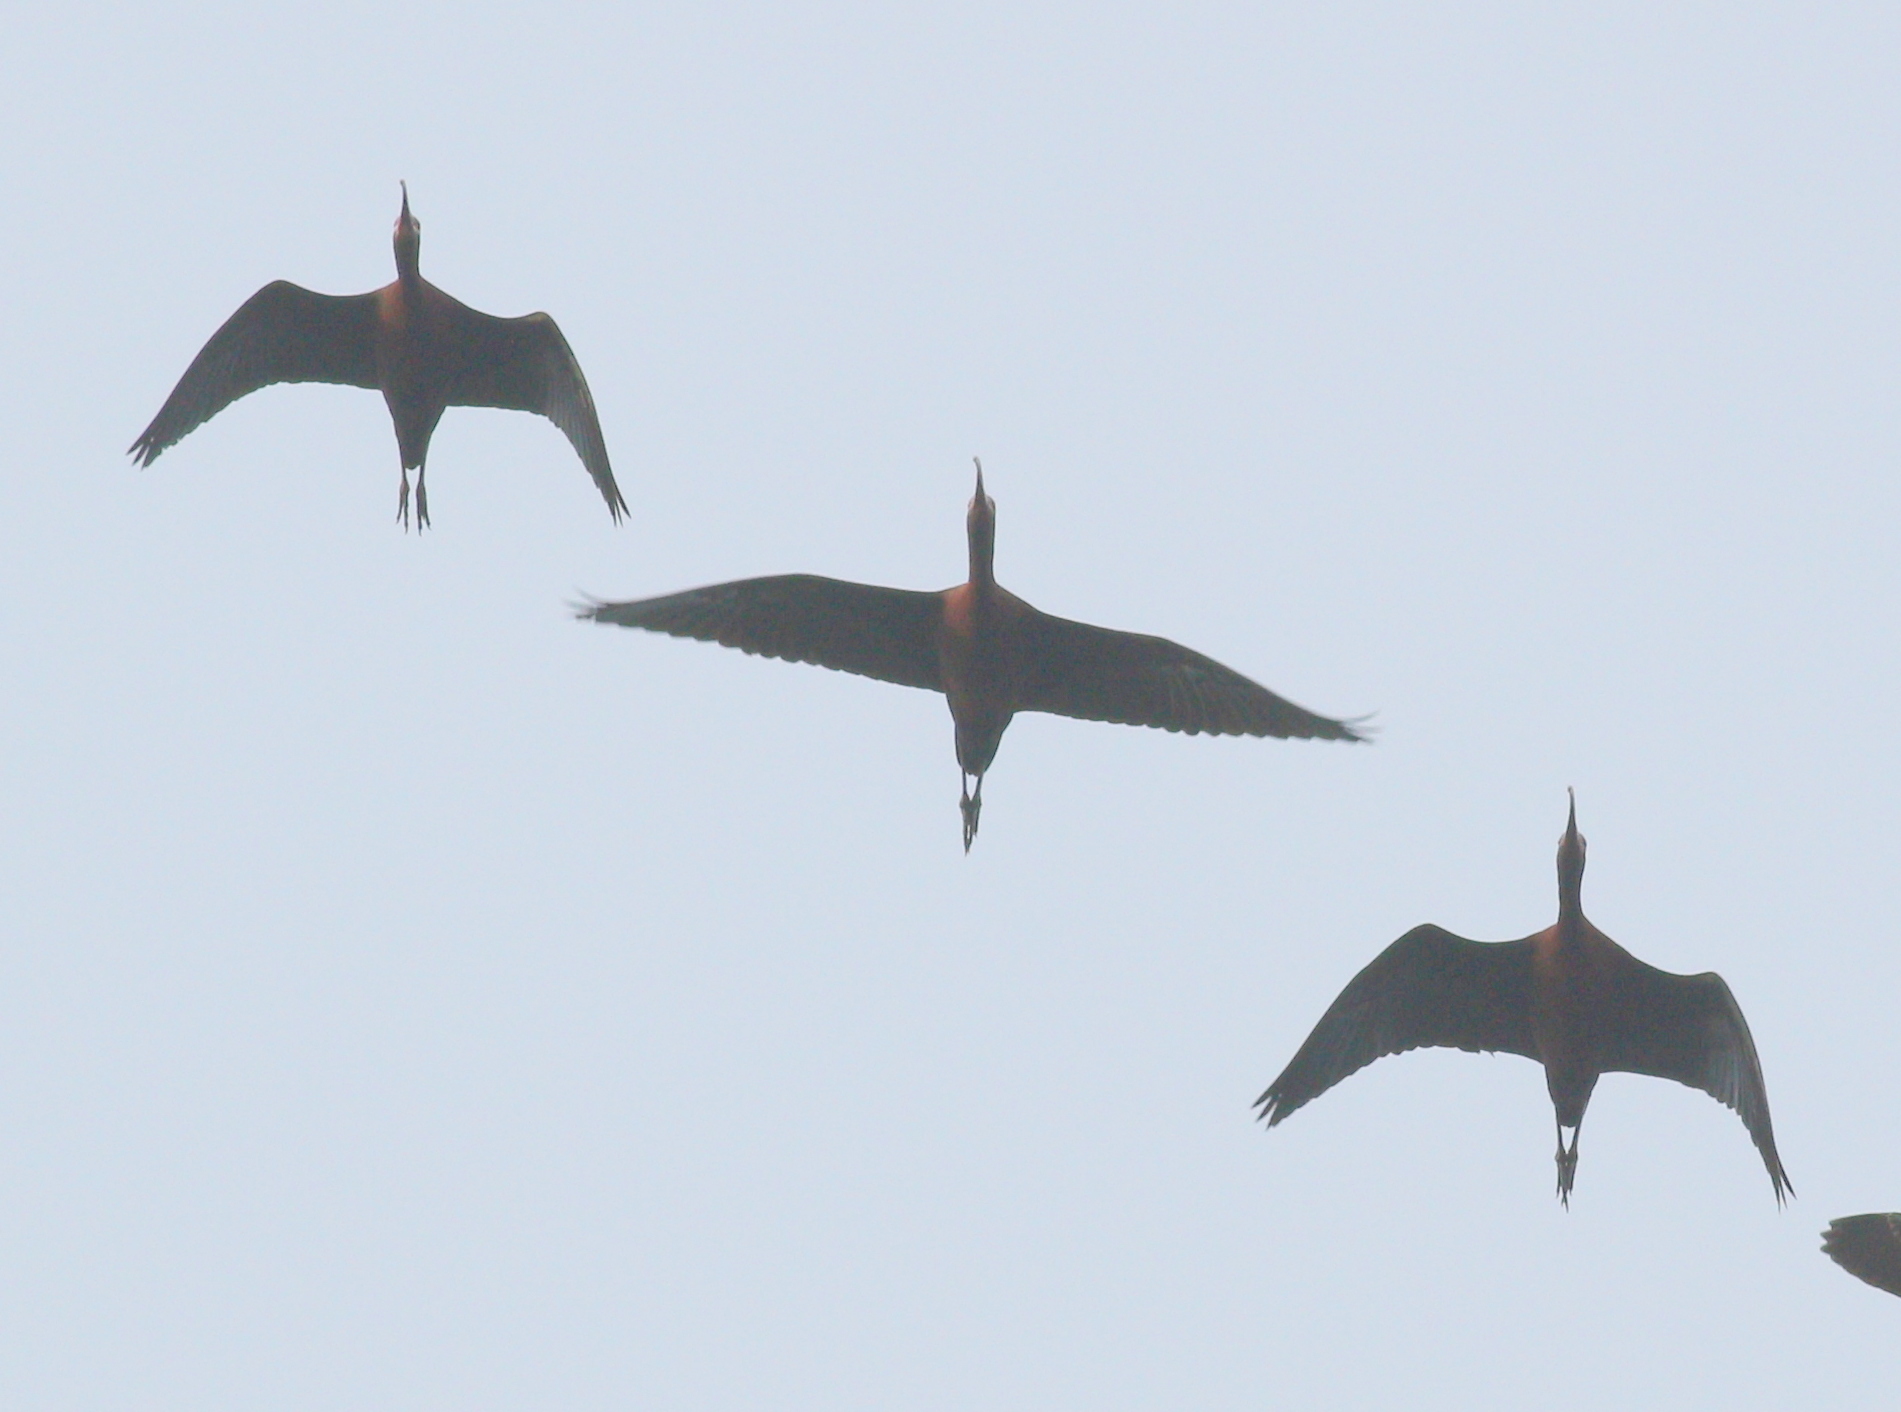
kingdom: Animalia
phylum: Chordata
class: Aves
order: Pelecaniformes
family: Threskiornithidae
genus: Plegadis
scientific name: Plegadis chihi
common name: White-faced ibis
